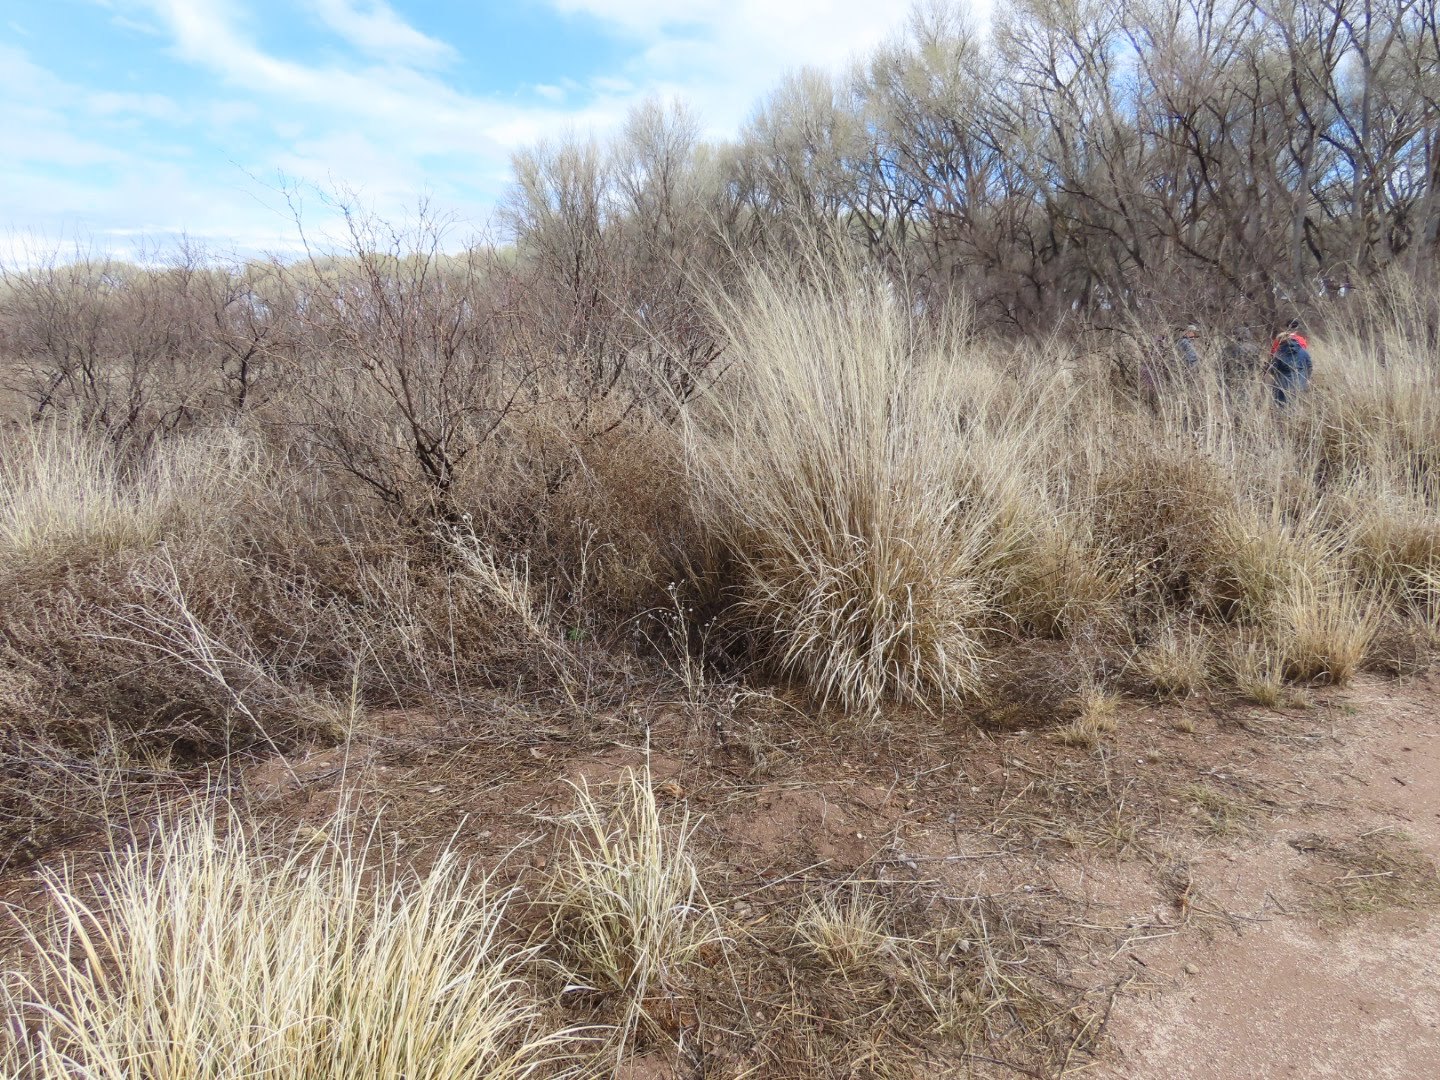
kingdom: Plantae
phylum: Tracheophyta
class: Liliopsida
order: Poales
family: Poaceae
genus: Sporobolus
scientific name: Sporobolus wrightii
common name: Big alkali sacaton
